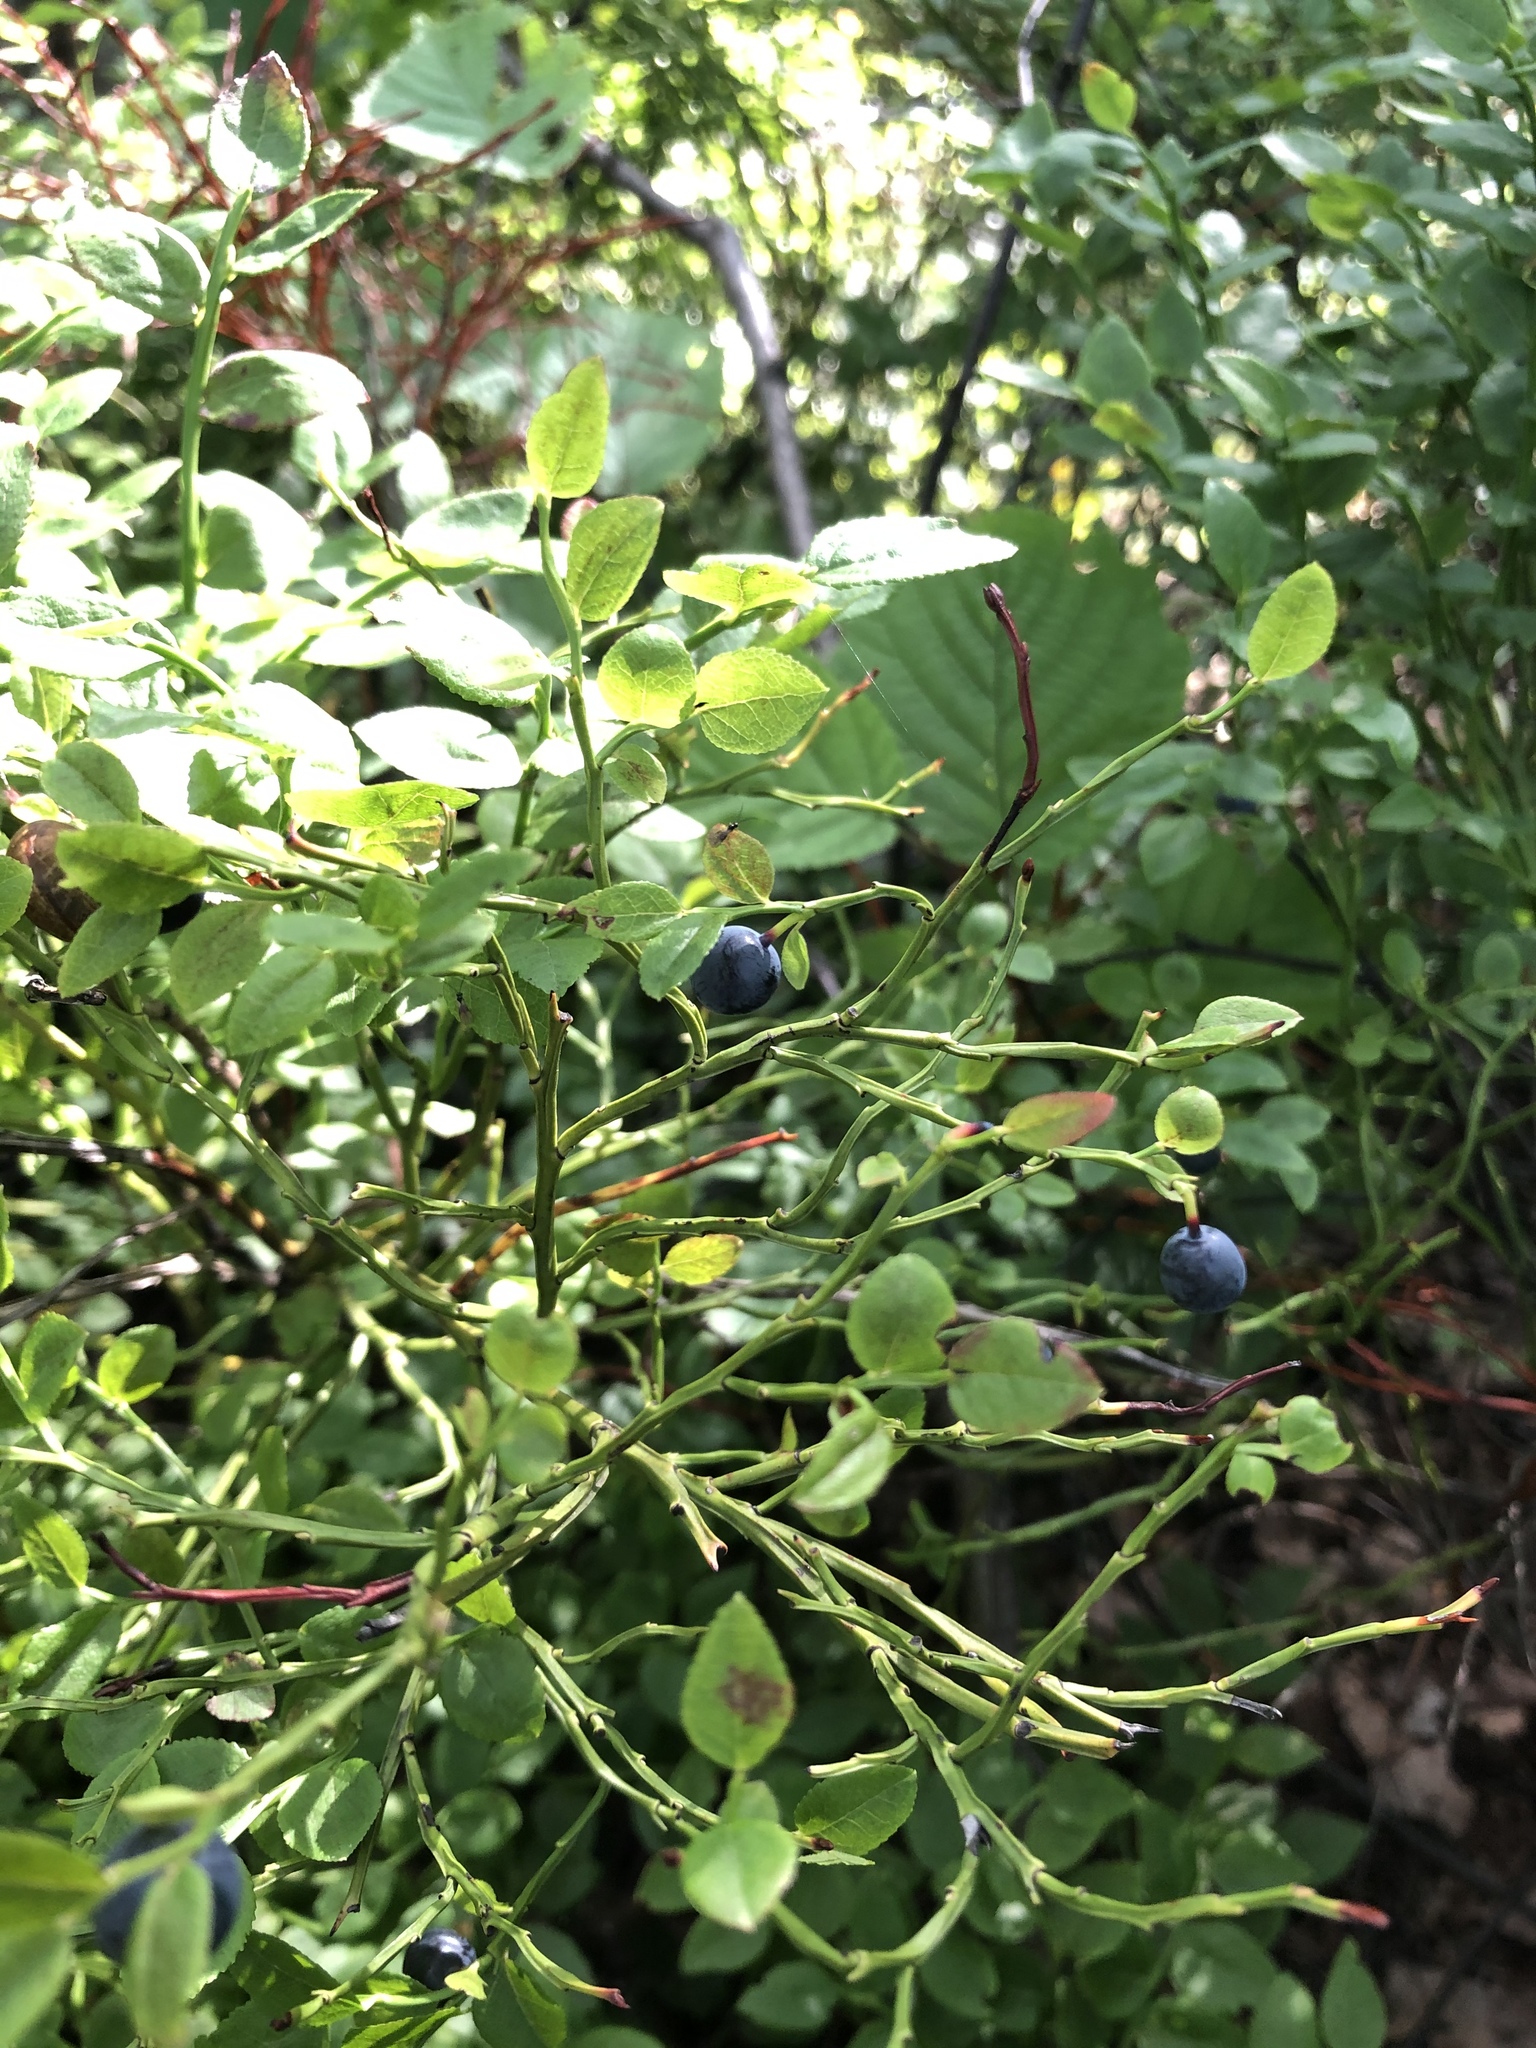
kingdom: Plantae
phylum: Tracheophyta
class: Magnoliopsida
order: Ericales
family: Ericaceae
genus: Vaccinium
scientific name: Vaccinium myrtillus
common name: Bilberry
